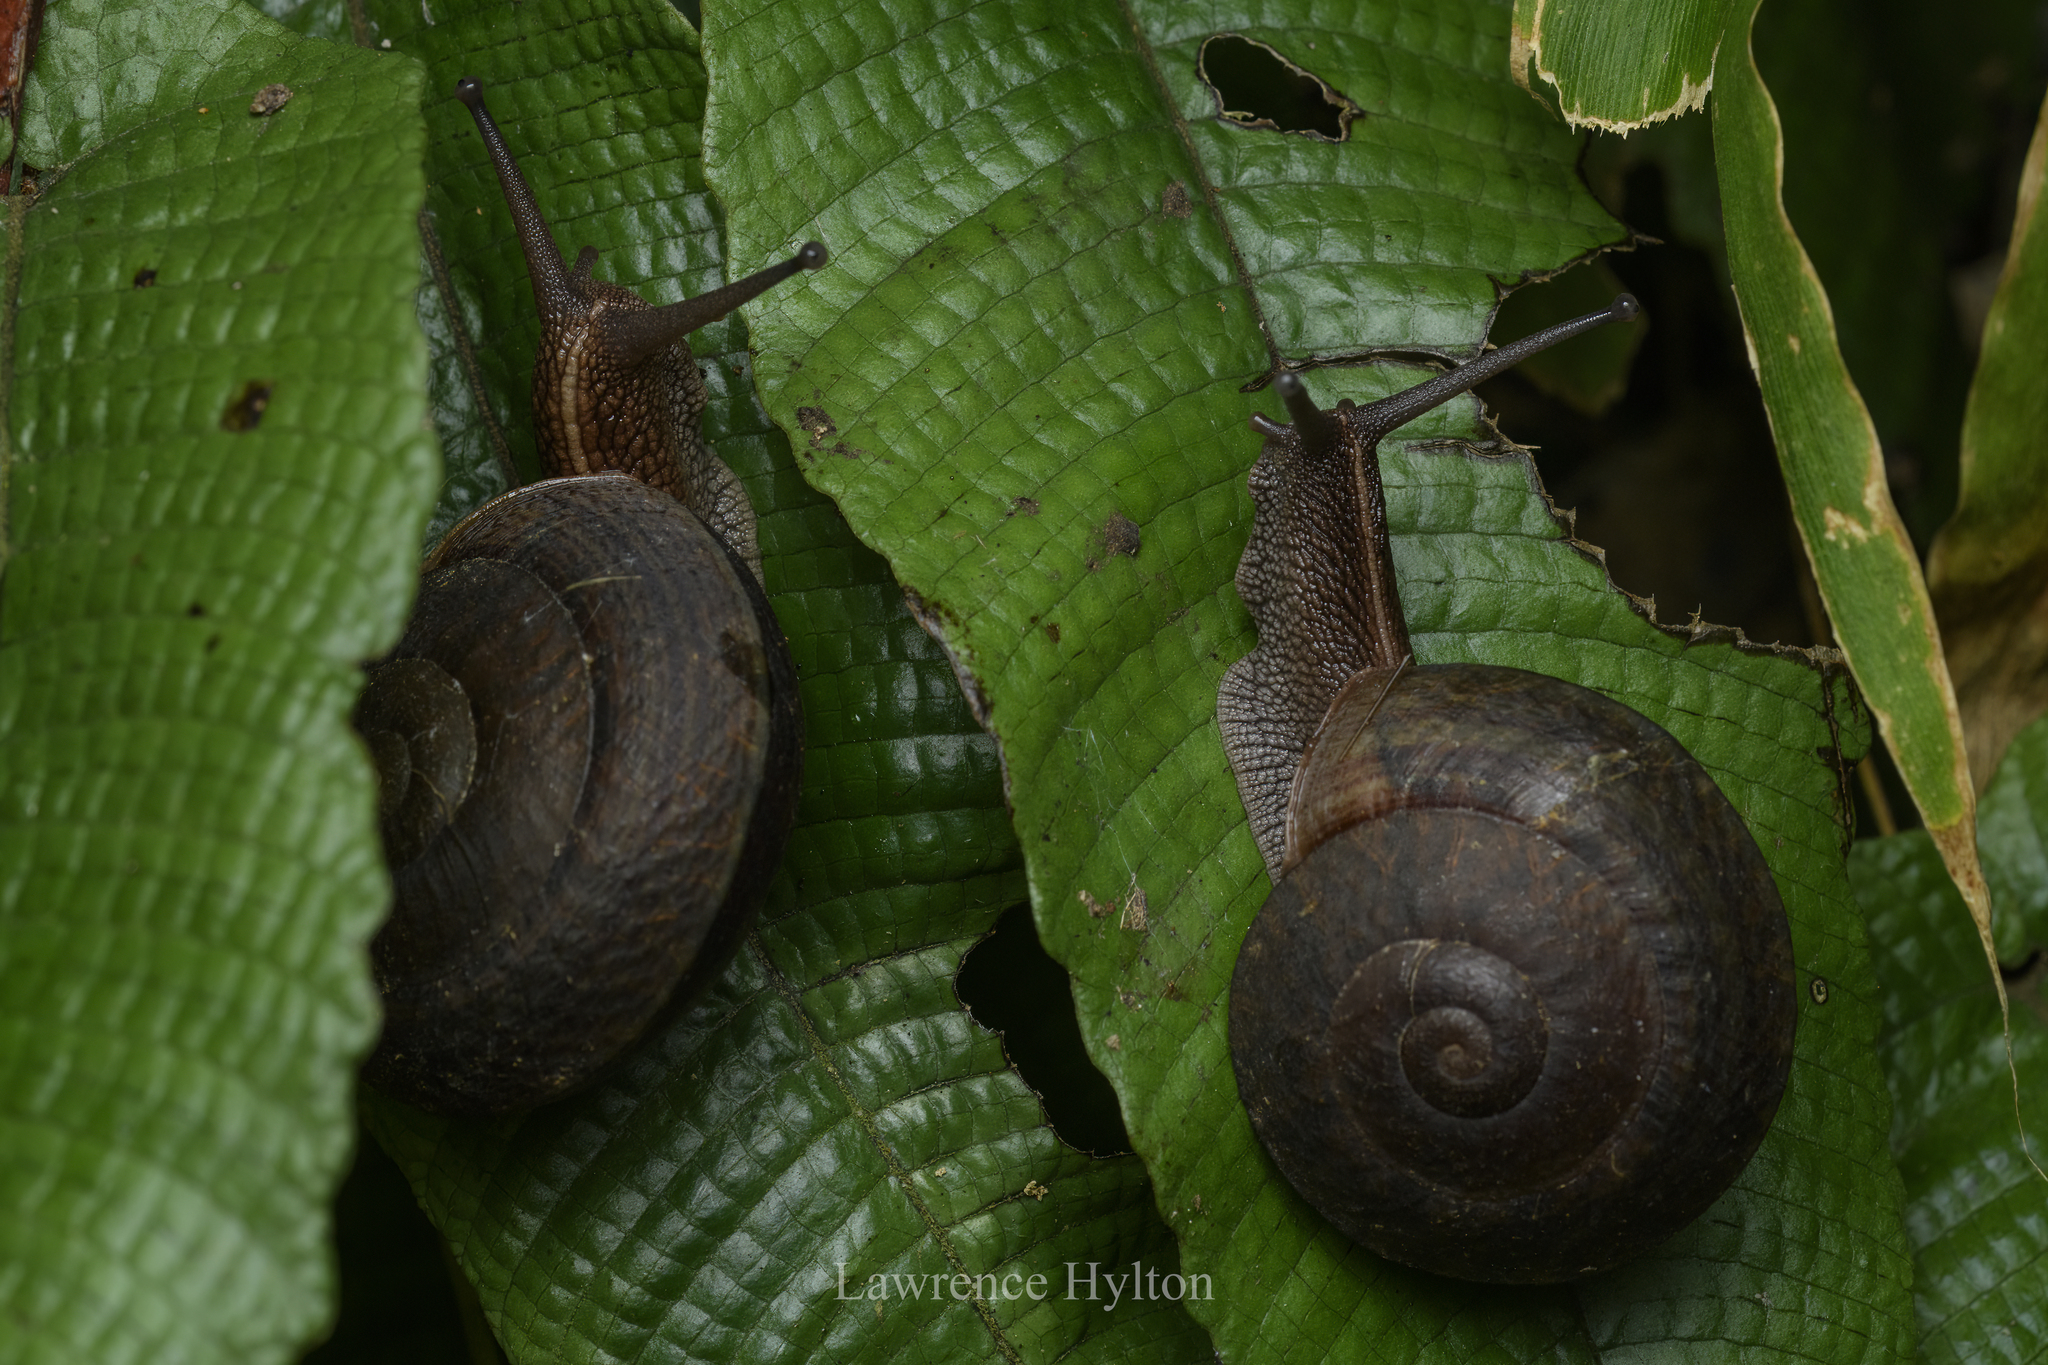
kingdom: Animalia
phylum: Mollusca
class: Gastropoda
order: Stylommatophora
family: Camaenidae
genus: Camaena
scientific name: Camaena cicatricosa
